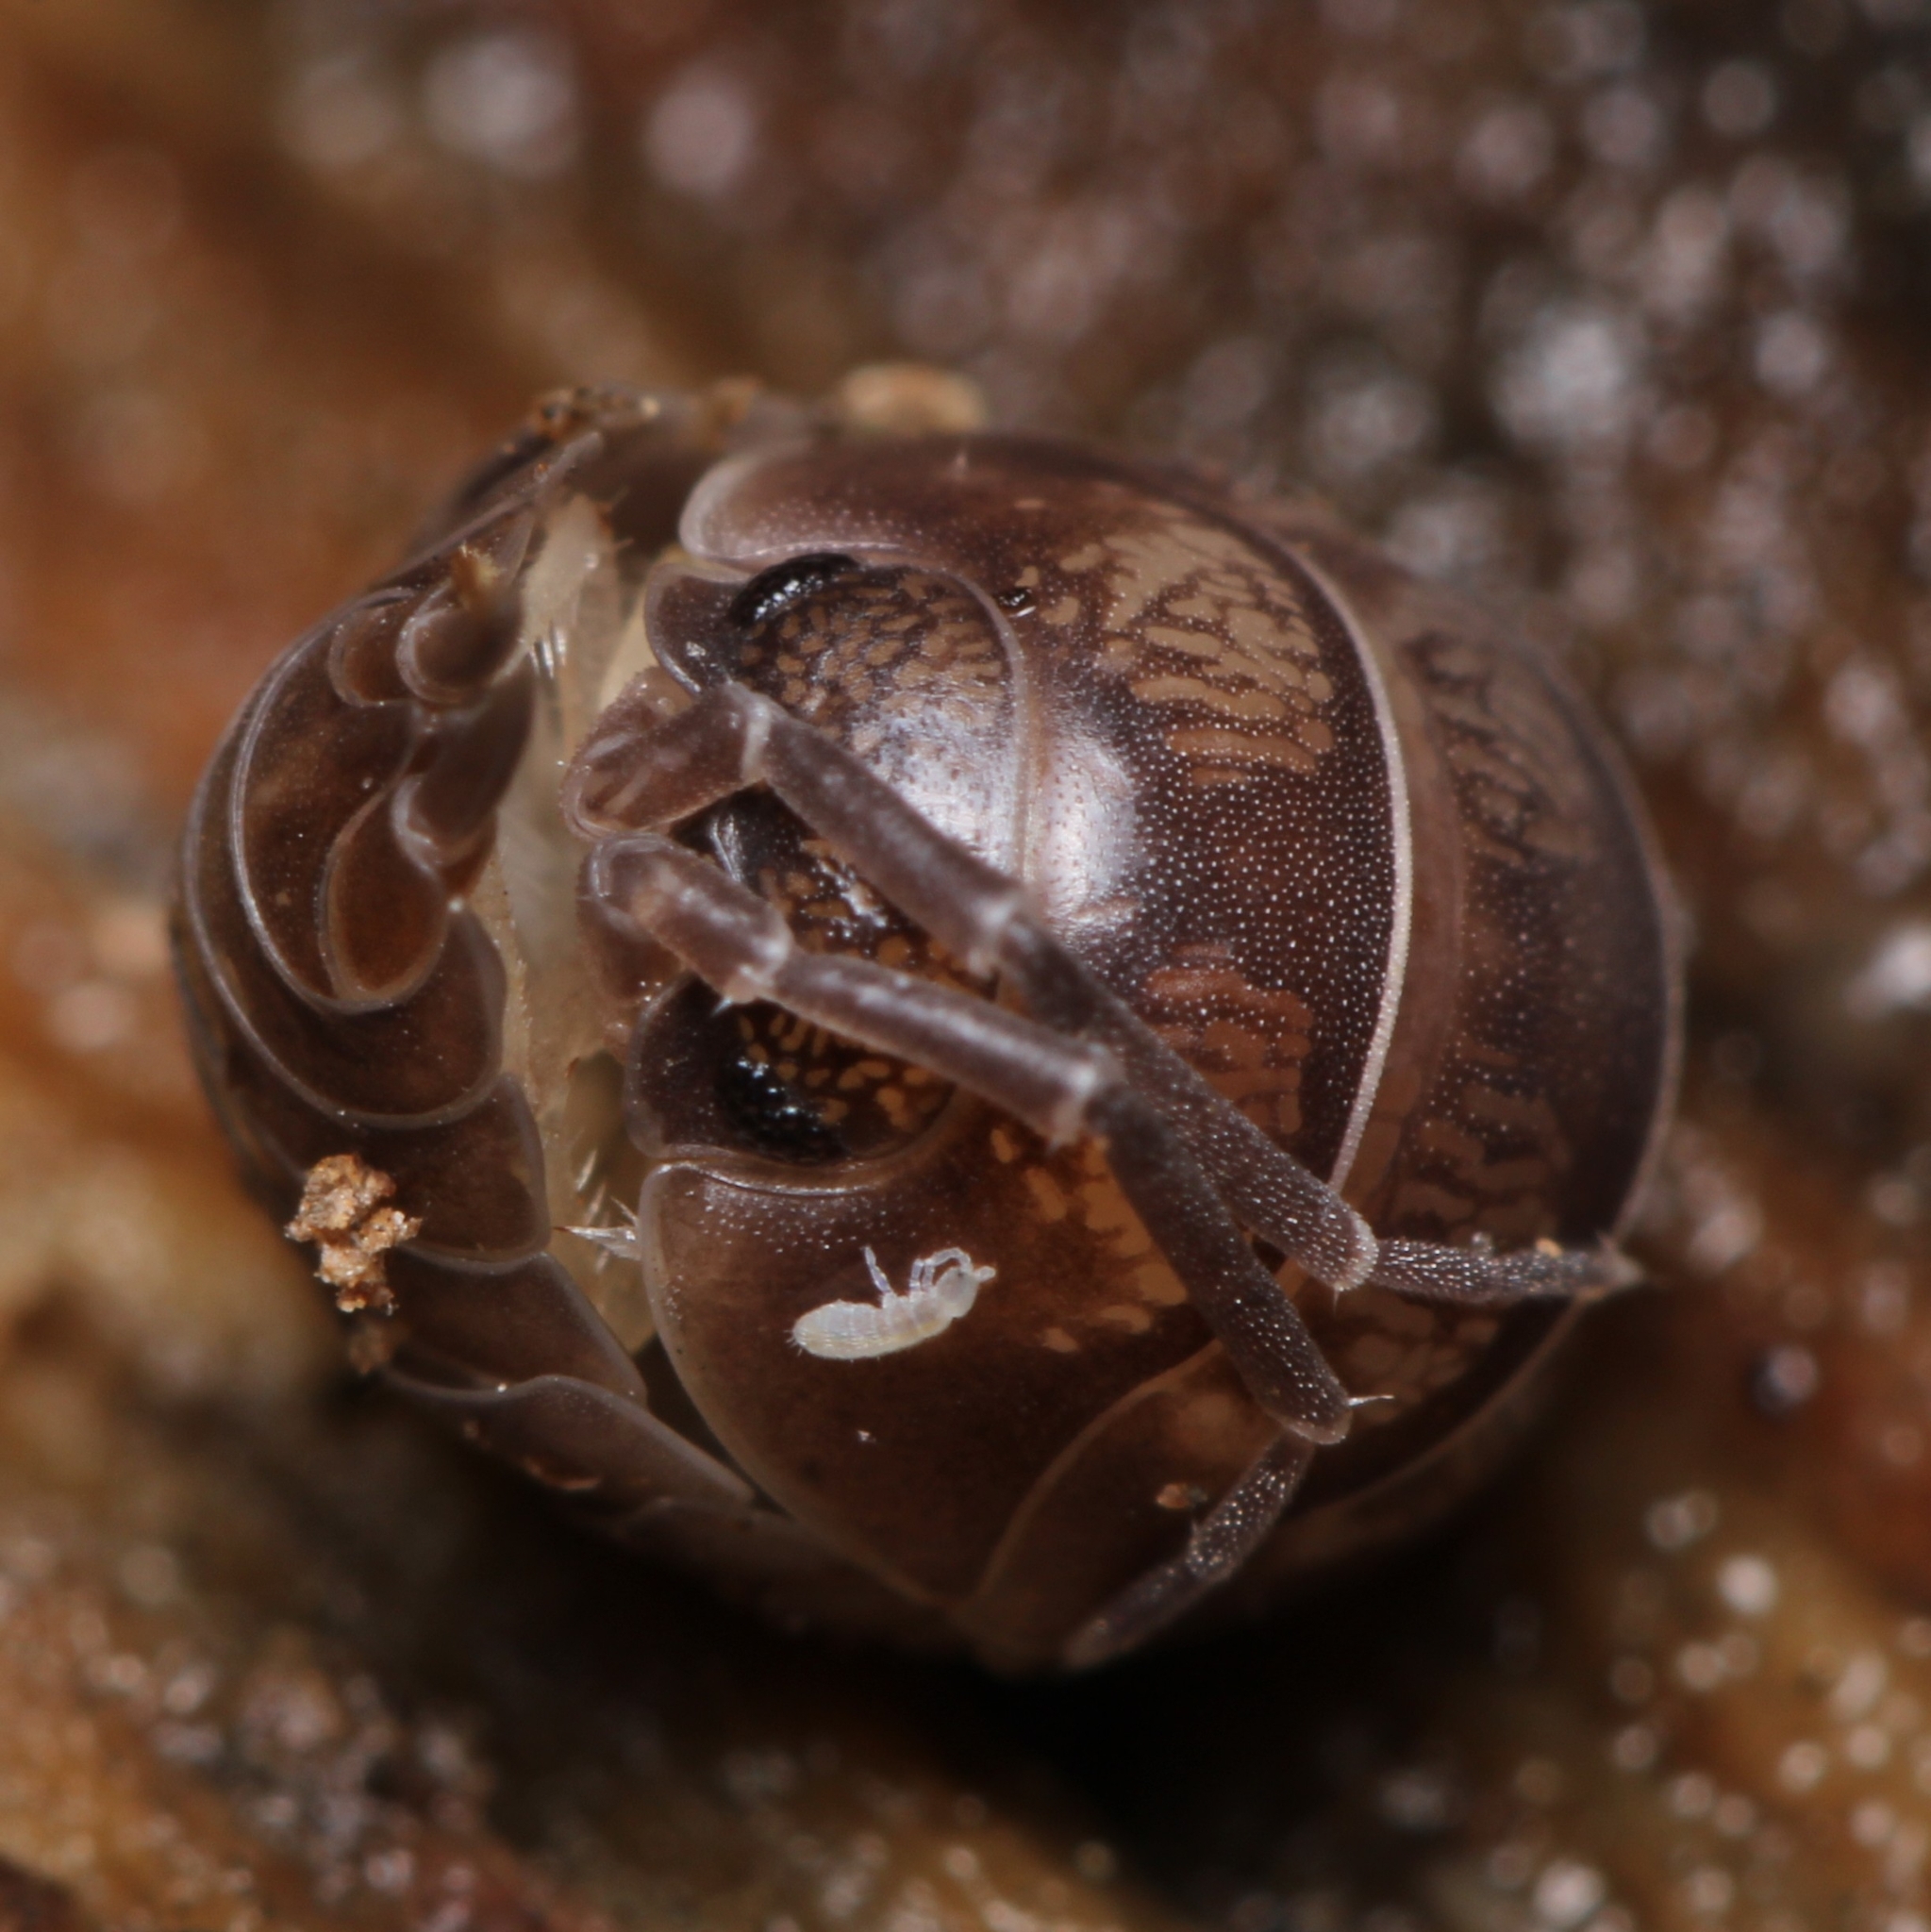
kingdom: Animalia
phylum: Arthropoda
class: Malacostraca
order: Isopoda
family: Cylisticidae
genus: Cylisticus
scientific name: Cylisticus convexus
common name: Curly woodlouse
